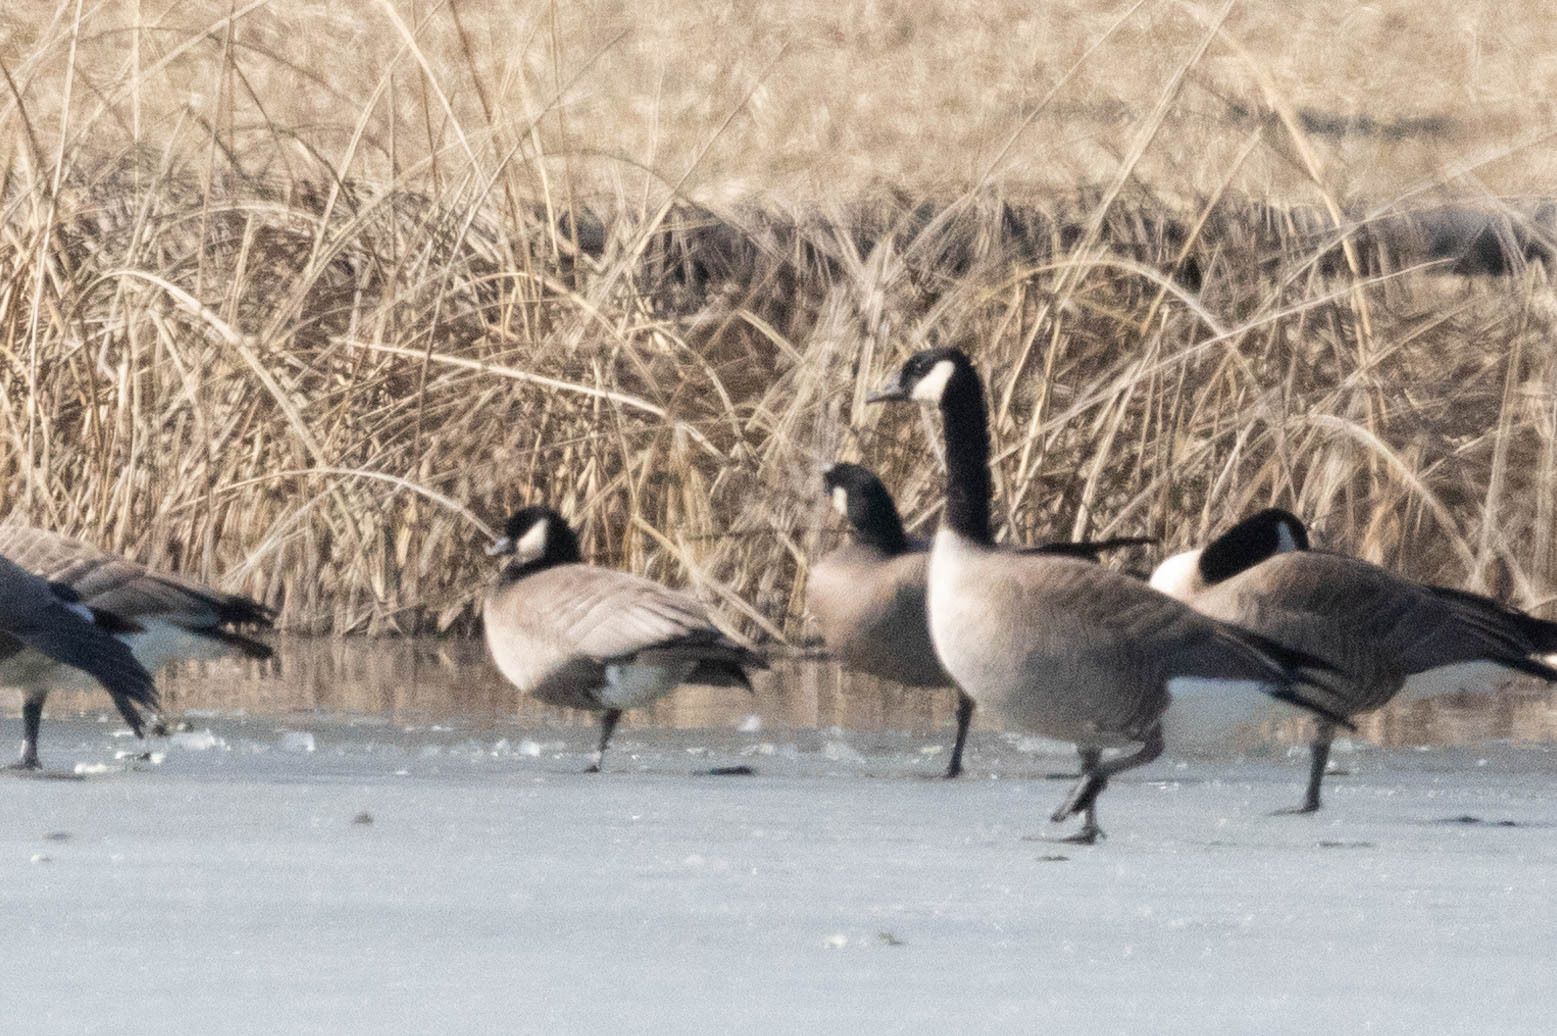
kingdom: Animalia
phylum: Chordata
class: Aves
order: Anseriformes
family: Anatidae
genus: Branta
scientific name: Branta hutchinsii
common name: Cackling goose
